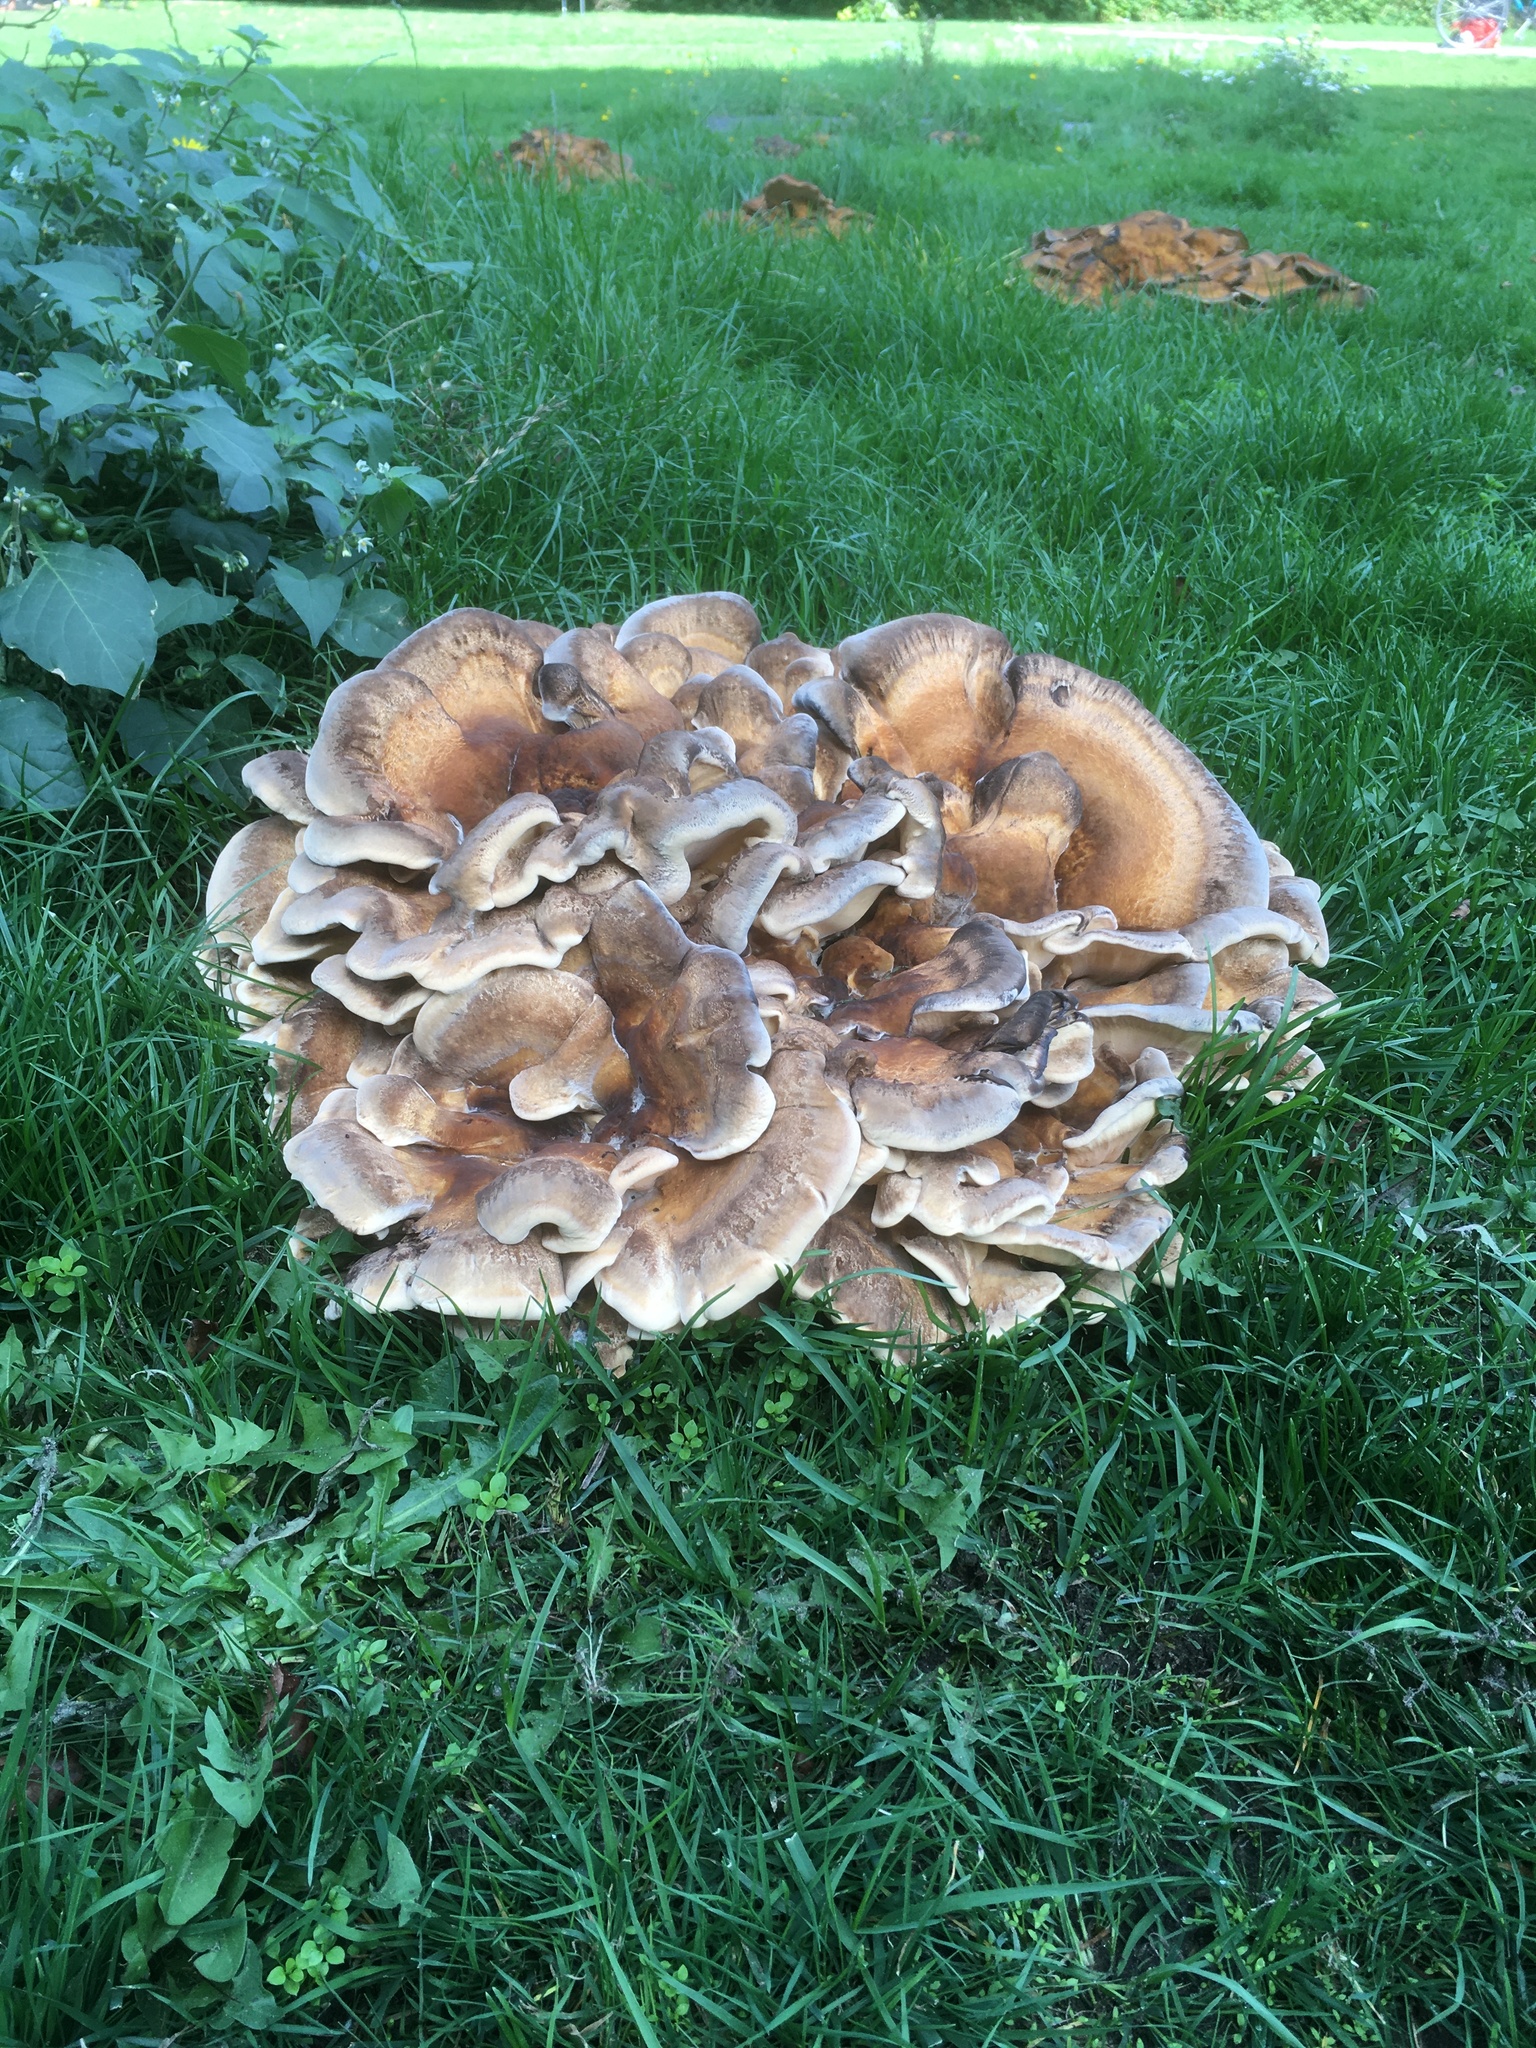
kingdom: Fungi
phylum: Basidiomycota
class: Agaricomycetes
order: Polyporales
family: Meripilaceae
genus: Meripilus
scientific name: Meripilus giganteus
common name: Giant polypore
